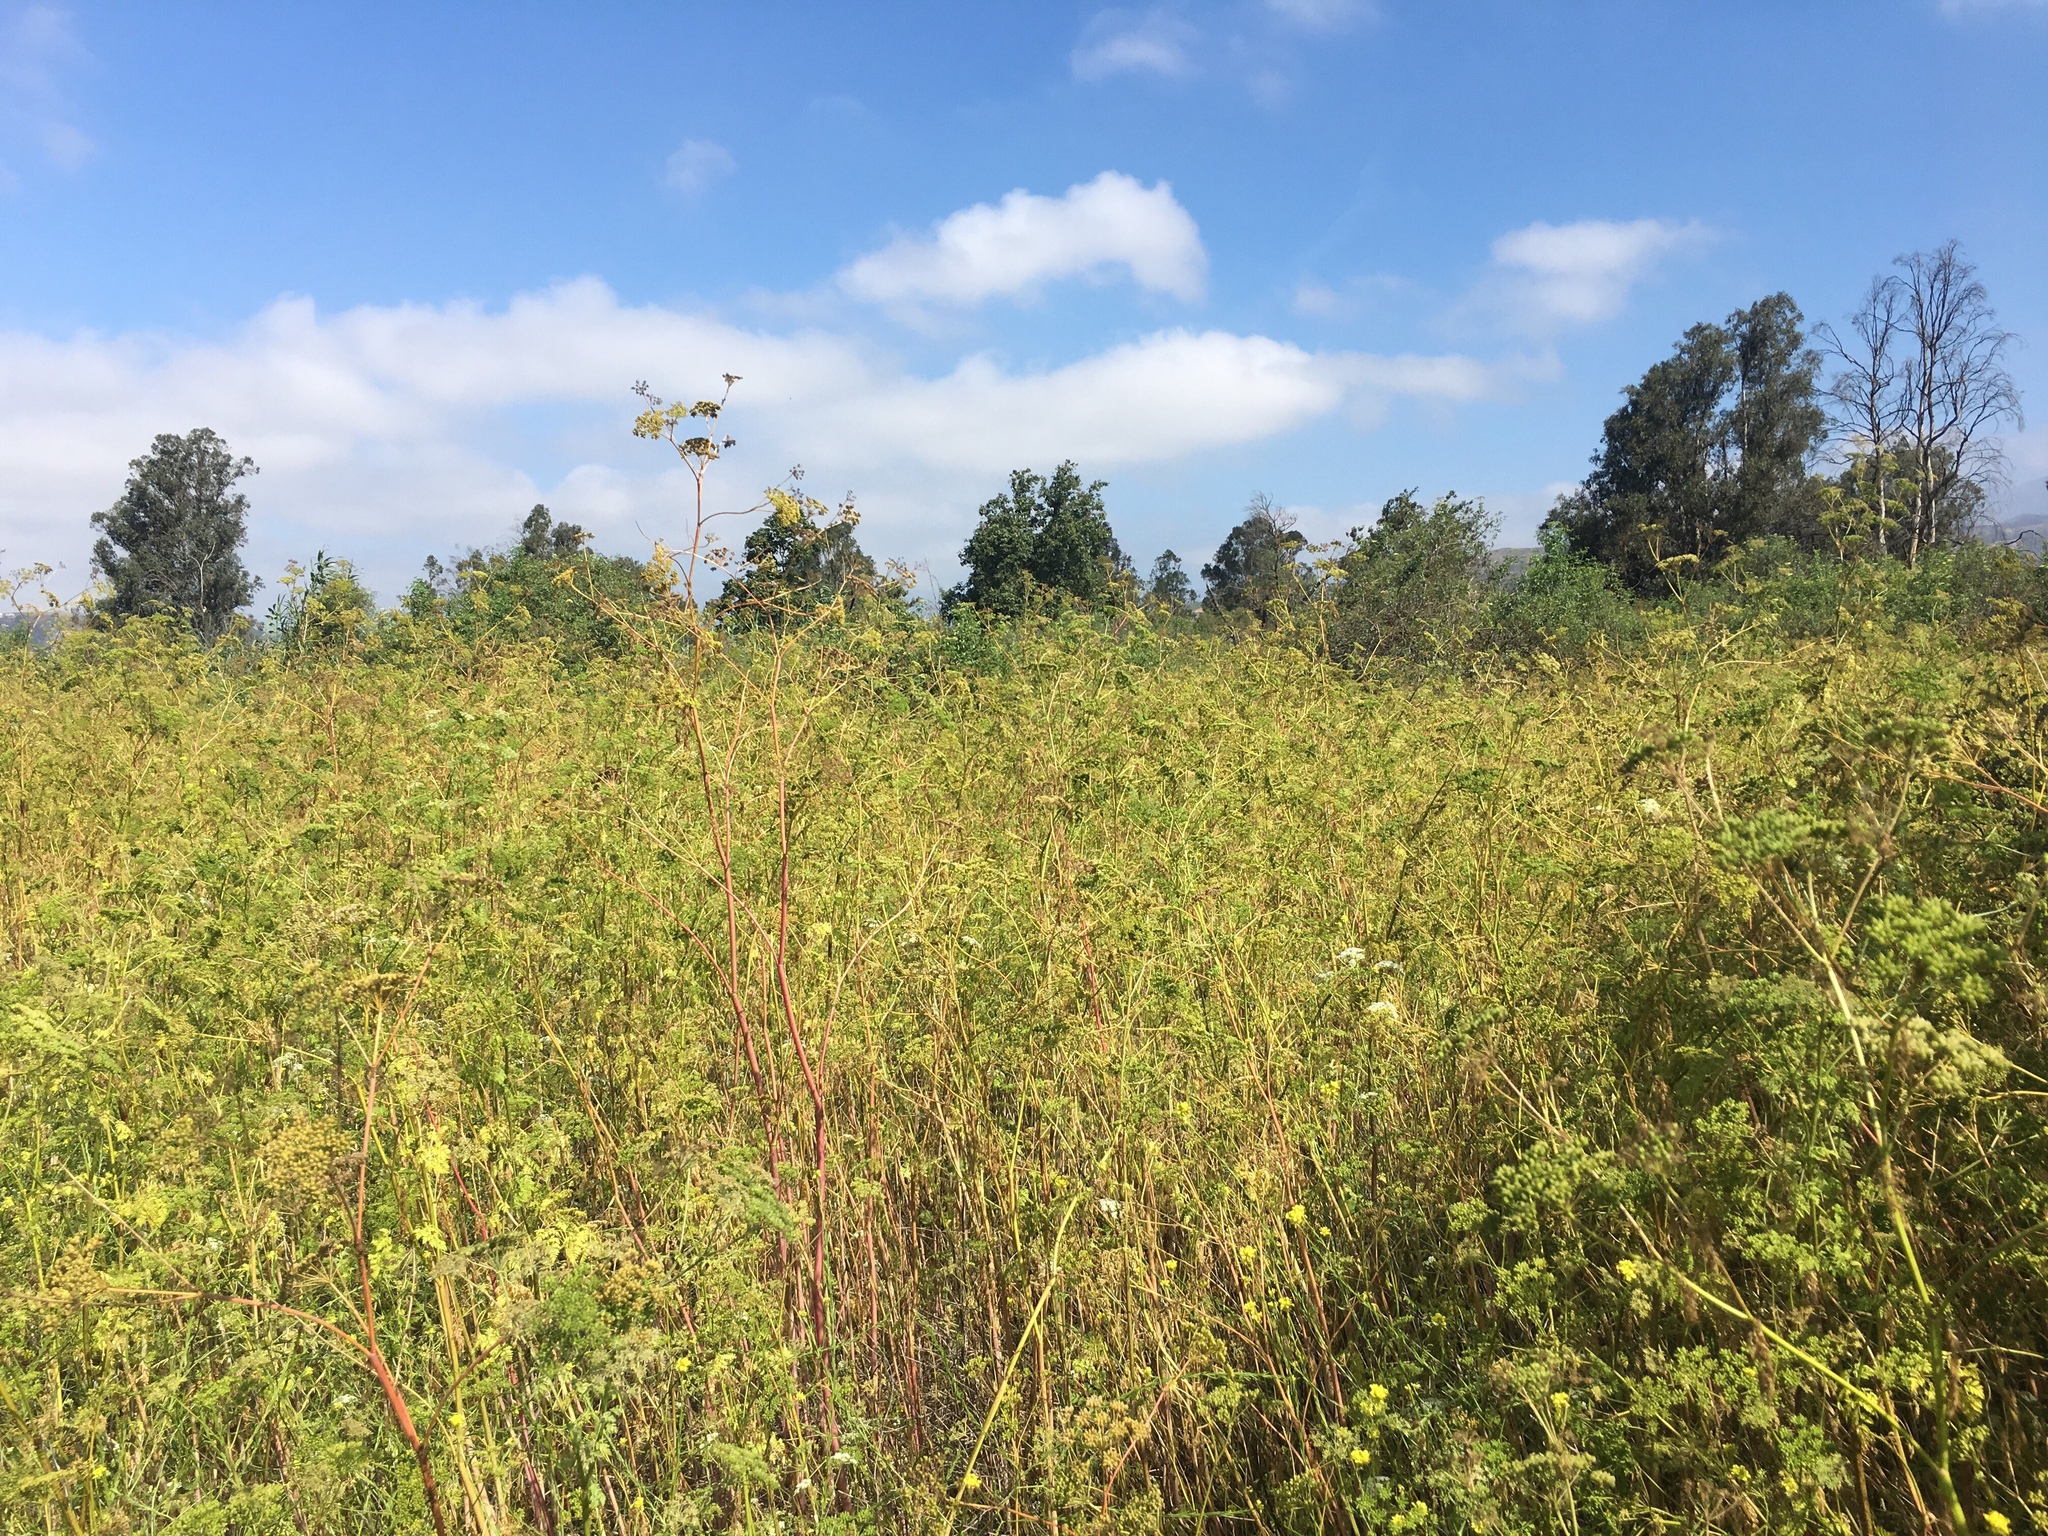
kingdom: Plantae
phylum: Tracheophyta
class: Magnoliopsida
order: Apiales
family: Apiaceae
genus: Conium
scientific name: Conium maculatum
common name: Hemlock
